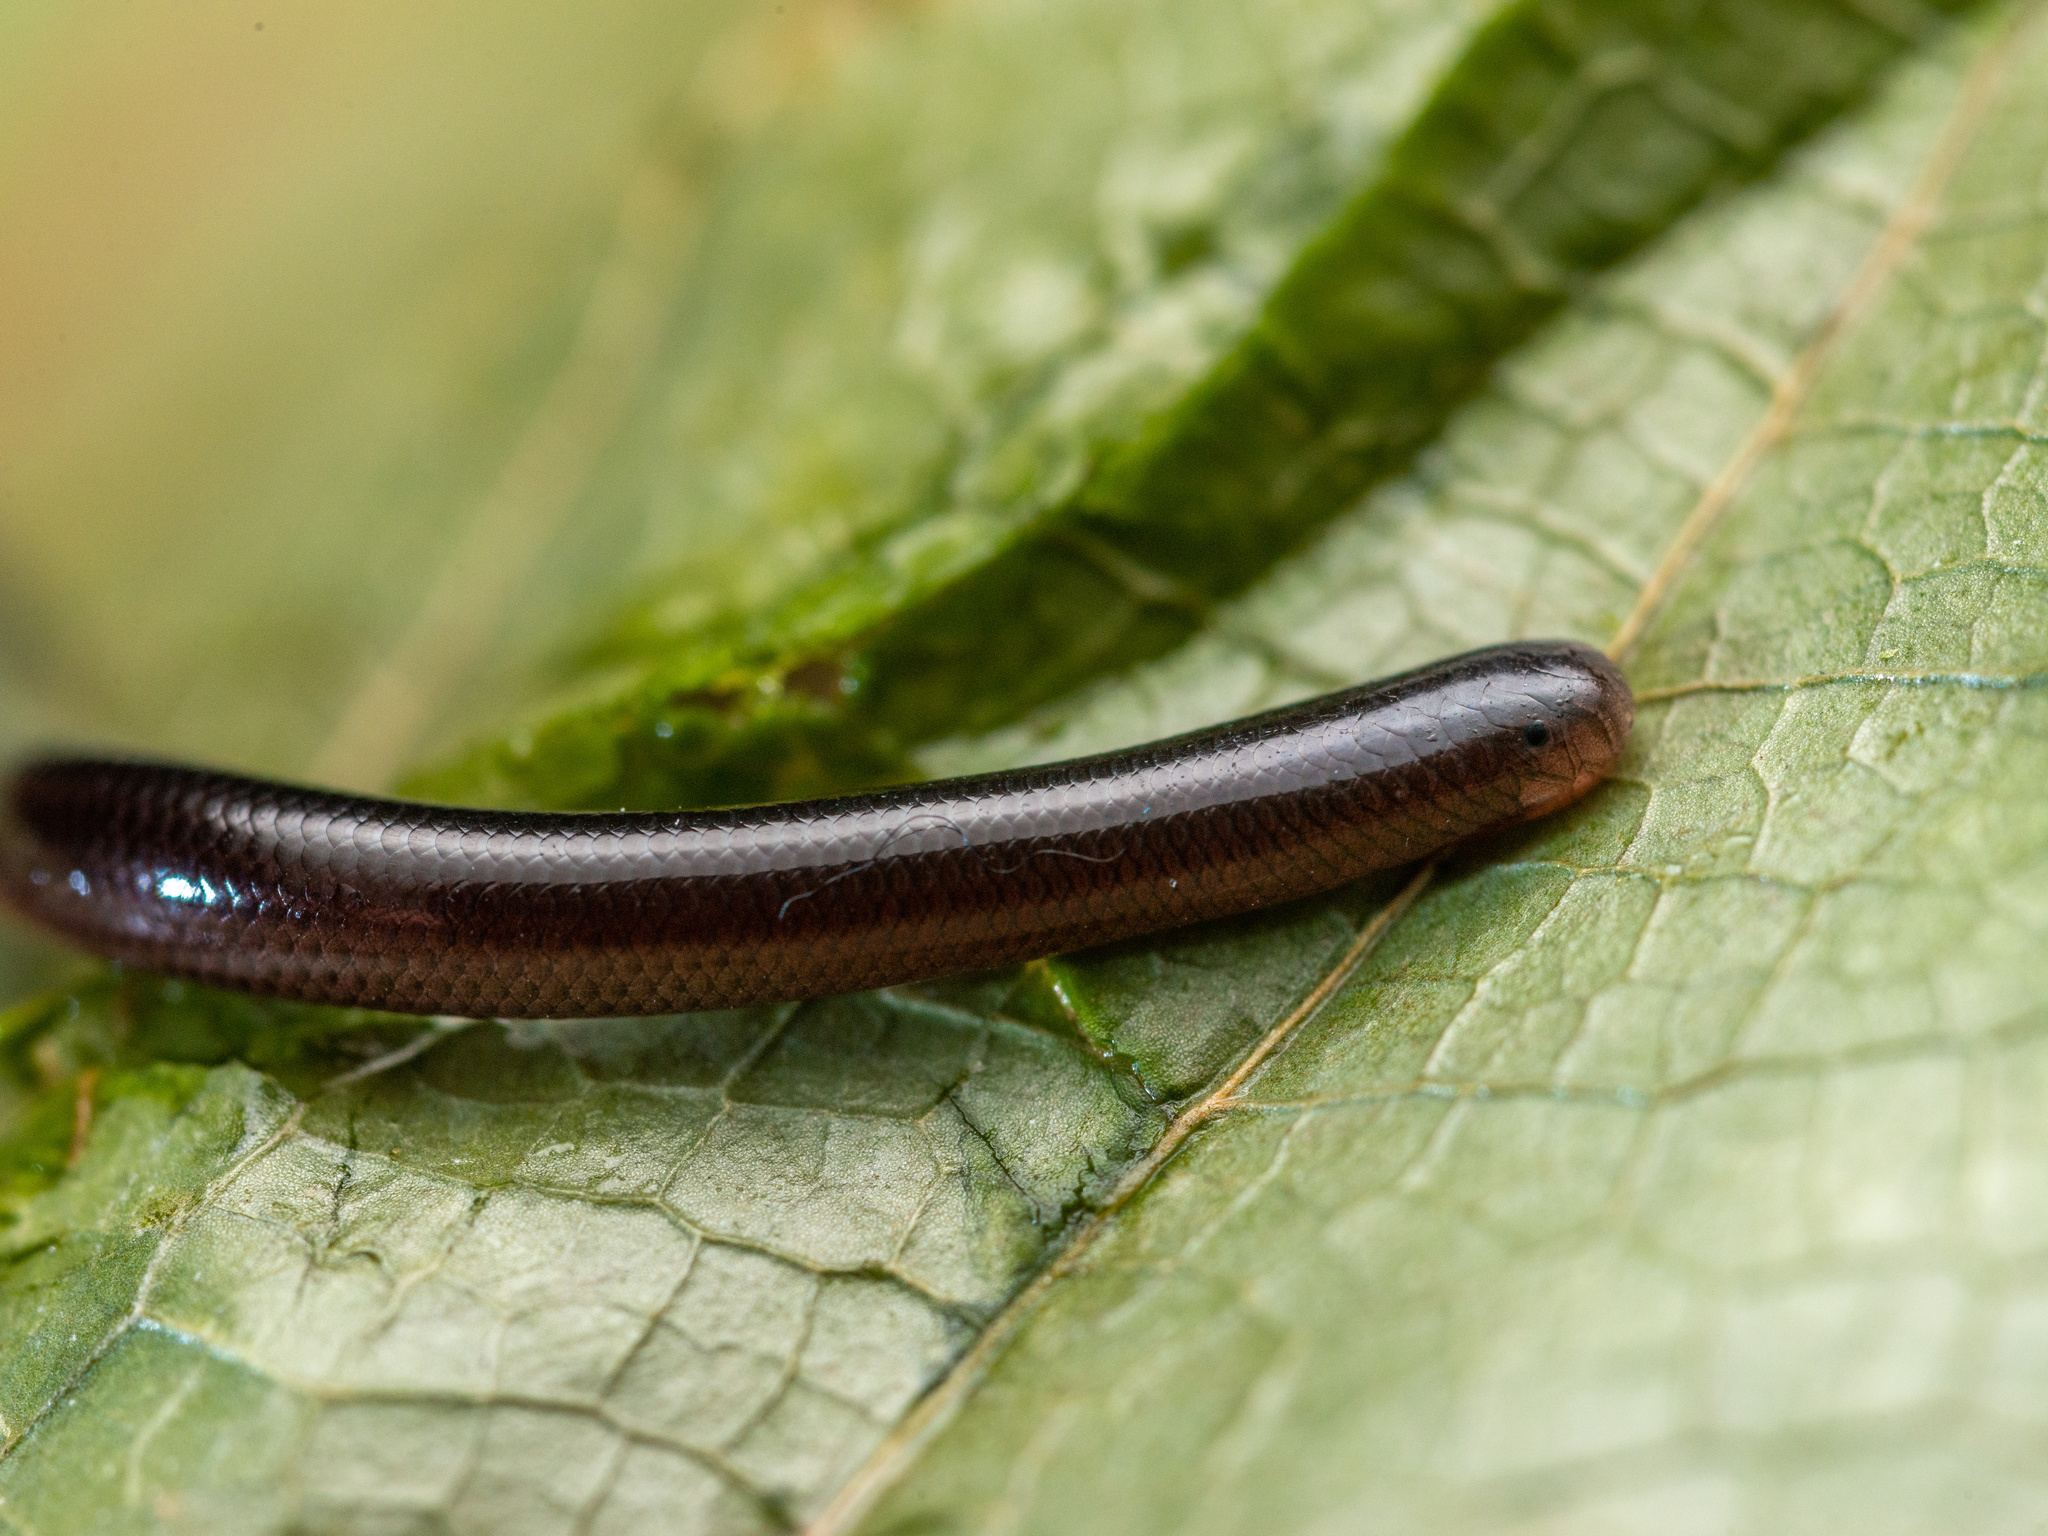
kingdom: Animalia
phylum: Chordata
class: Squamata
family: Typhlopidae
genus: Indotyphlops
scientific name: Indotyphlops braminus
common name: Brahminy blindsnake
